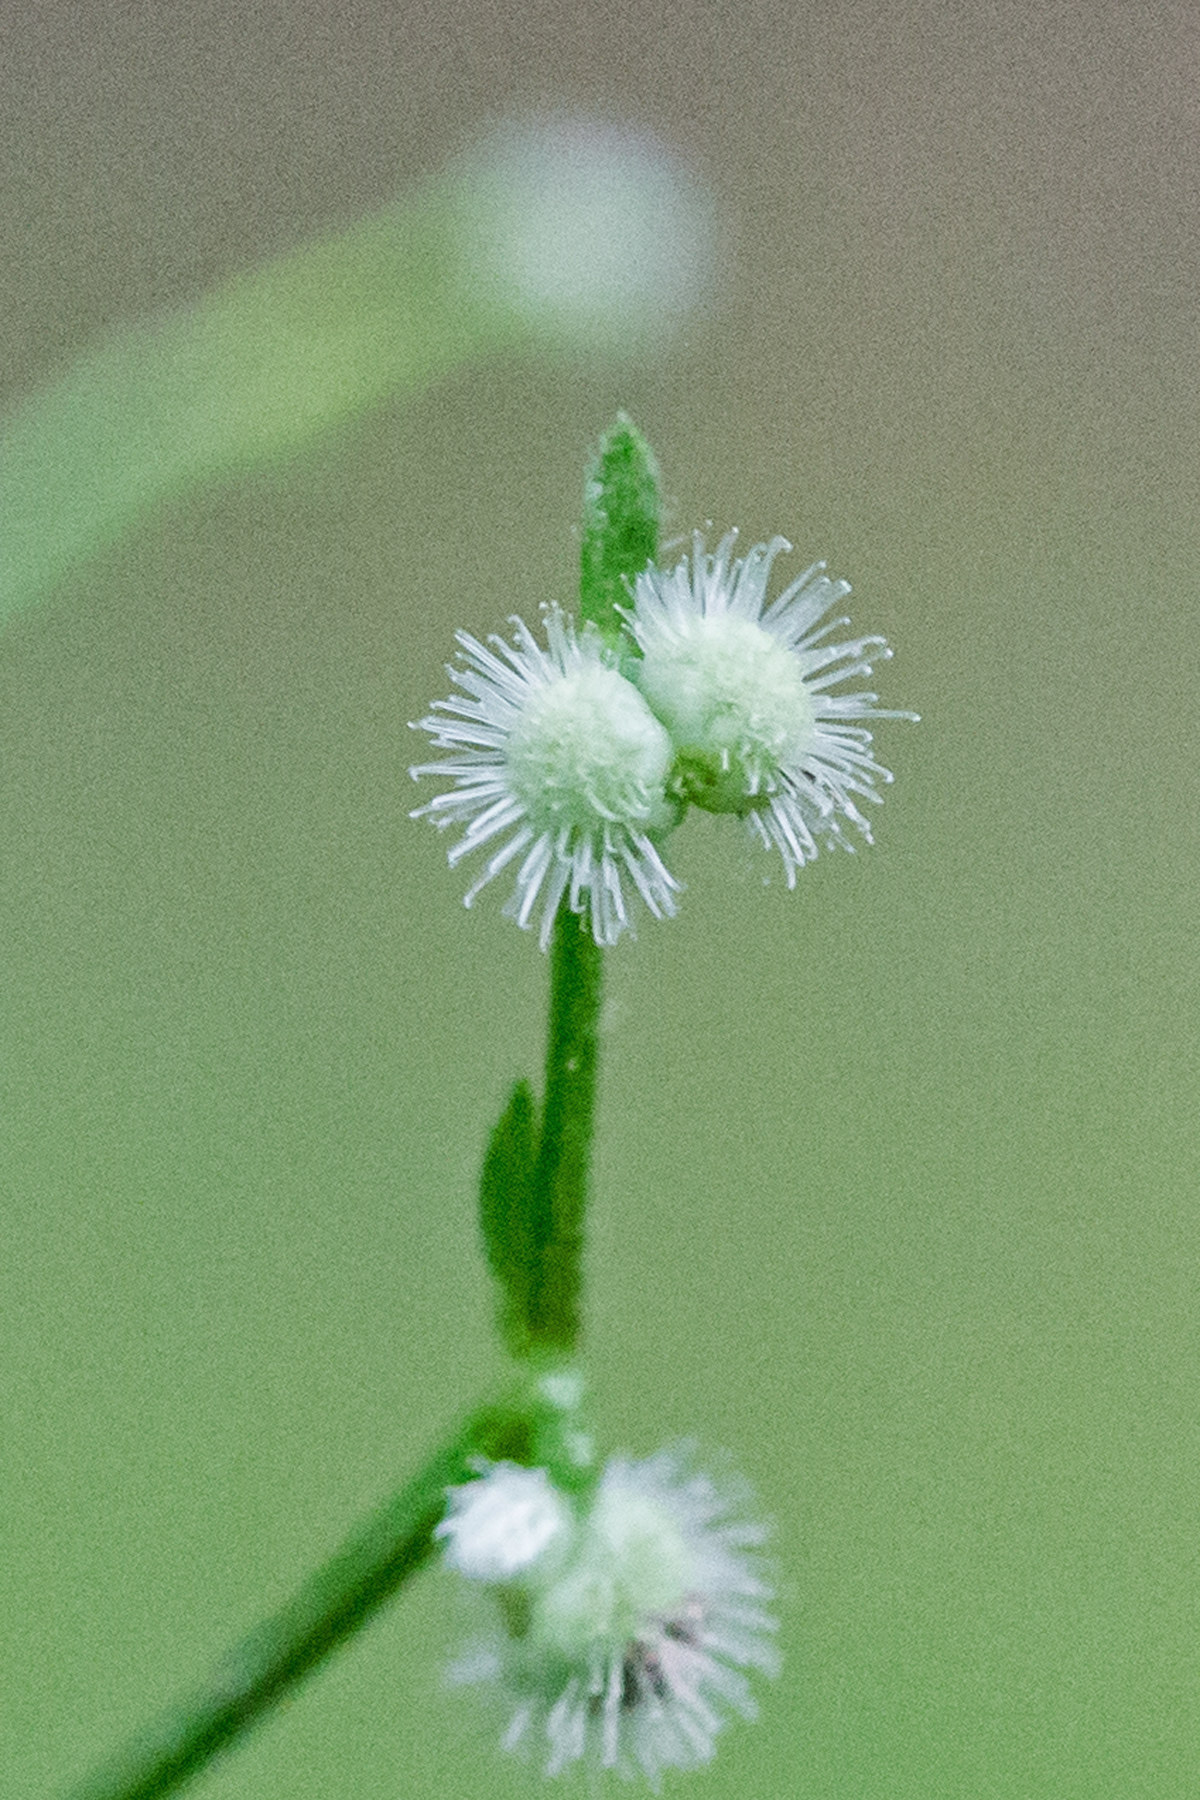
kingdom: Plantae
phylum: Tracheophyta
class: Magnoliopsida
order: Gentianales
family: Rubiaceae
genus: Galium
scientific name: Galium circaezans
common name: Forest bedstraw
